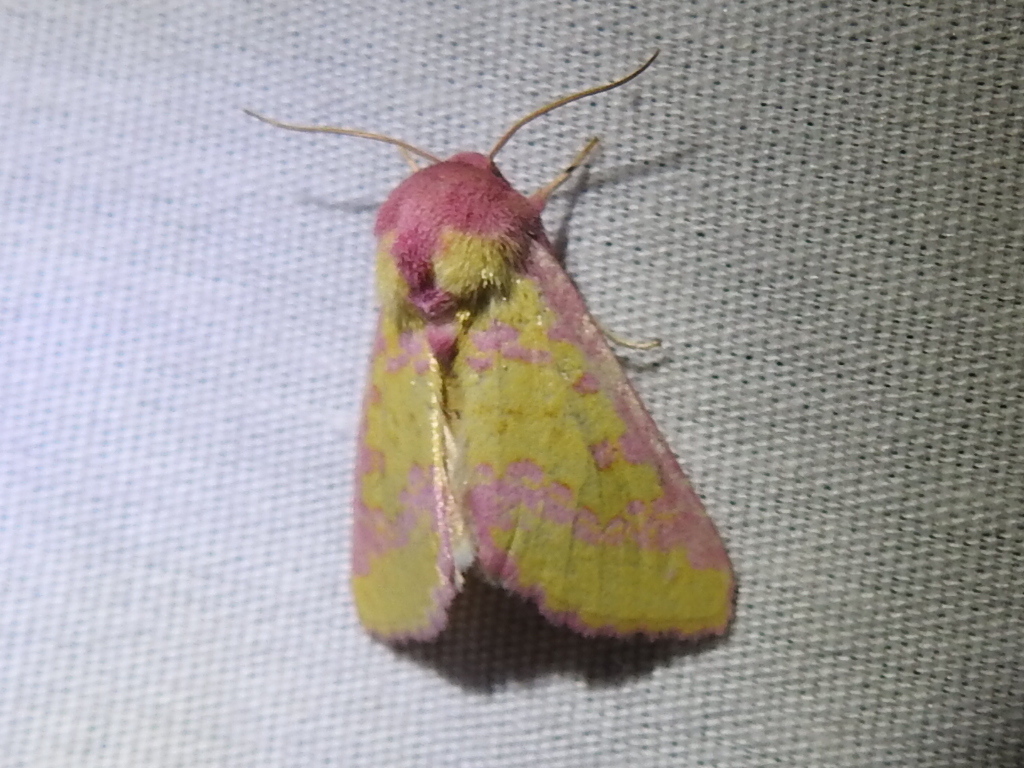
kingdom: Animalia
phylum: Arthropoda
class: Insecta
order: Lepidoptera
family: Noctuidae
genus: Psectrotarsia
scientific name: Psectrotarsia suavis
